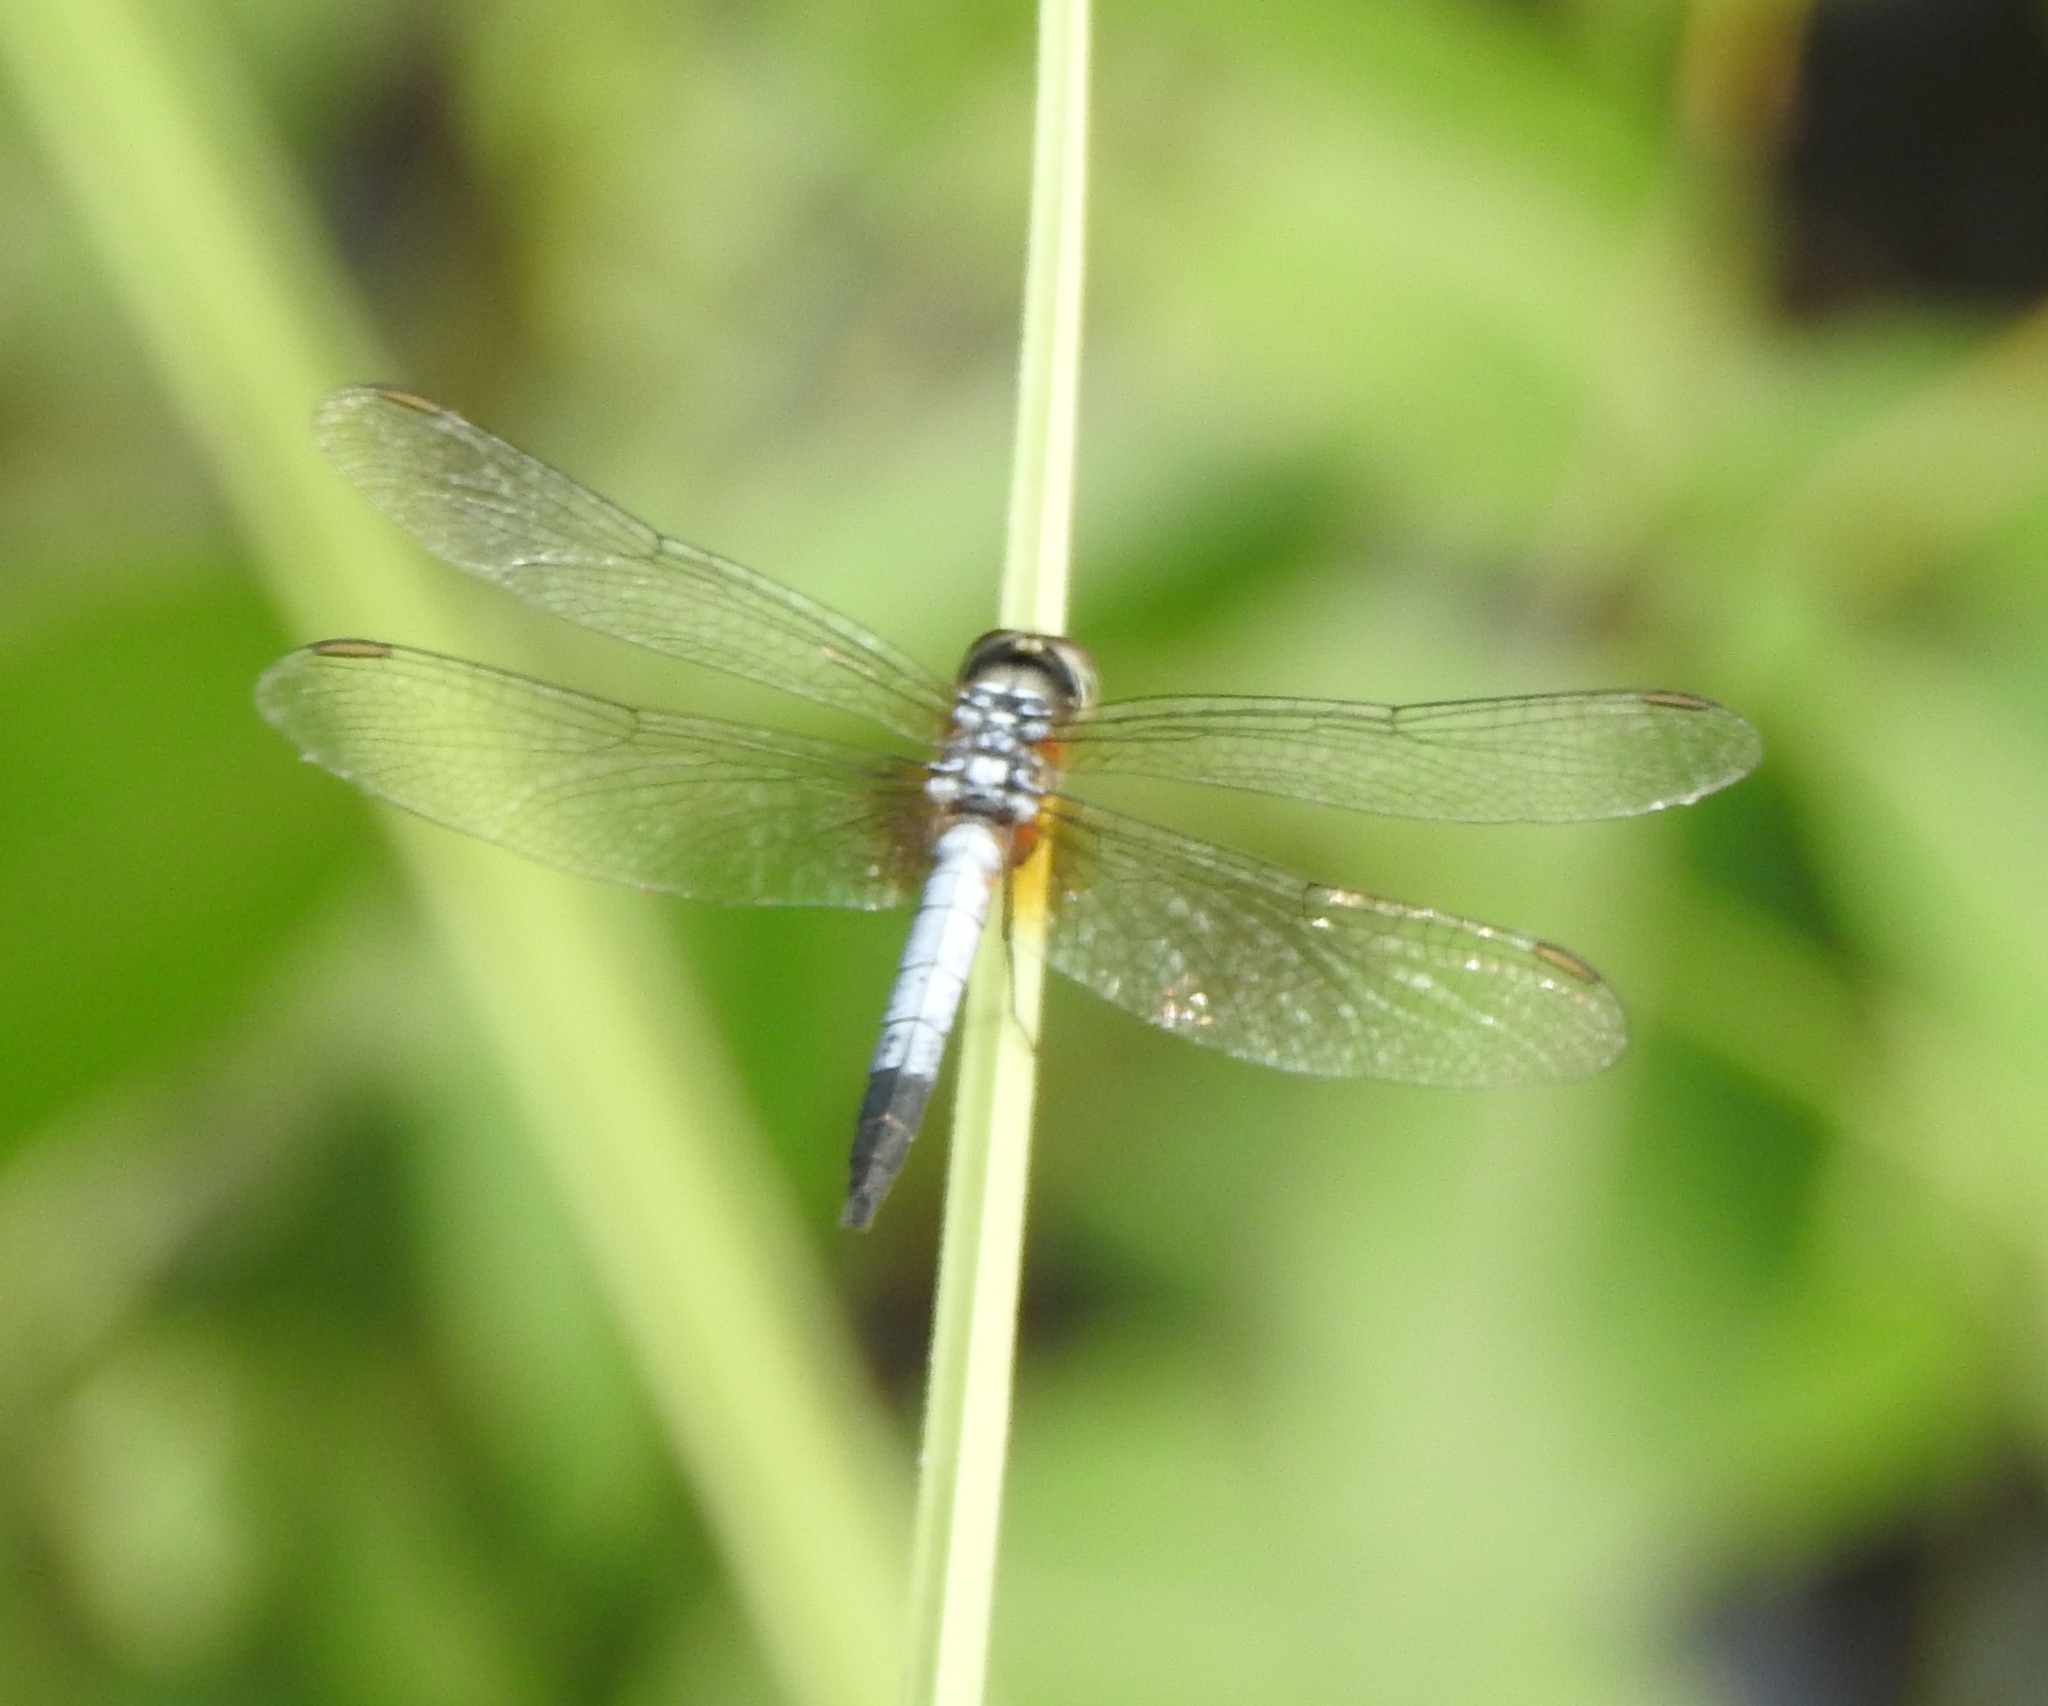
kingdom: Animalia
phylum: Arthropoda
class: Insecta
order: Odonata
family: Libellulidae
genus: Brachydiplax
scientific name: Brachydiplax chalybea
